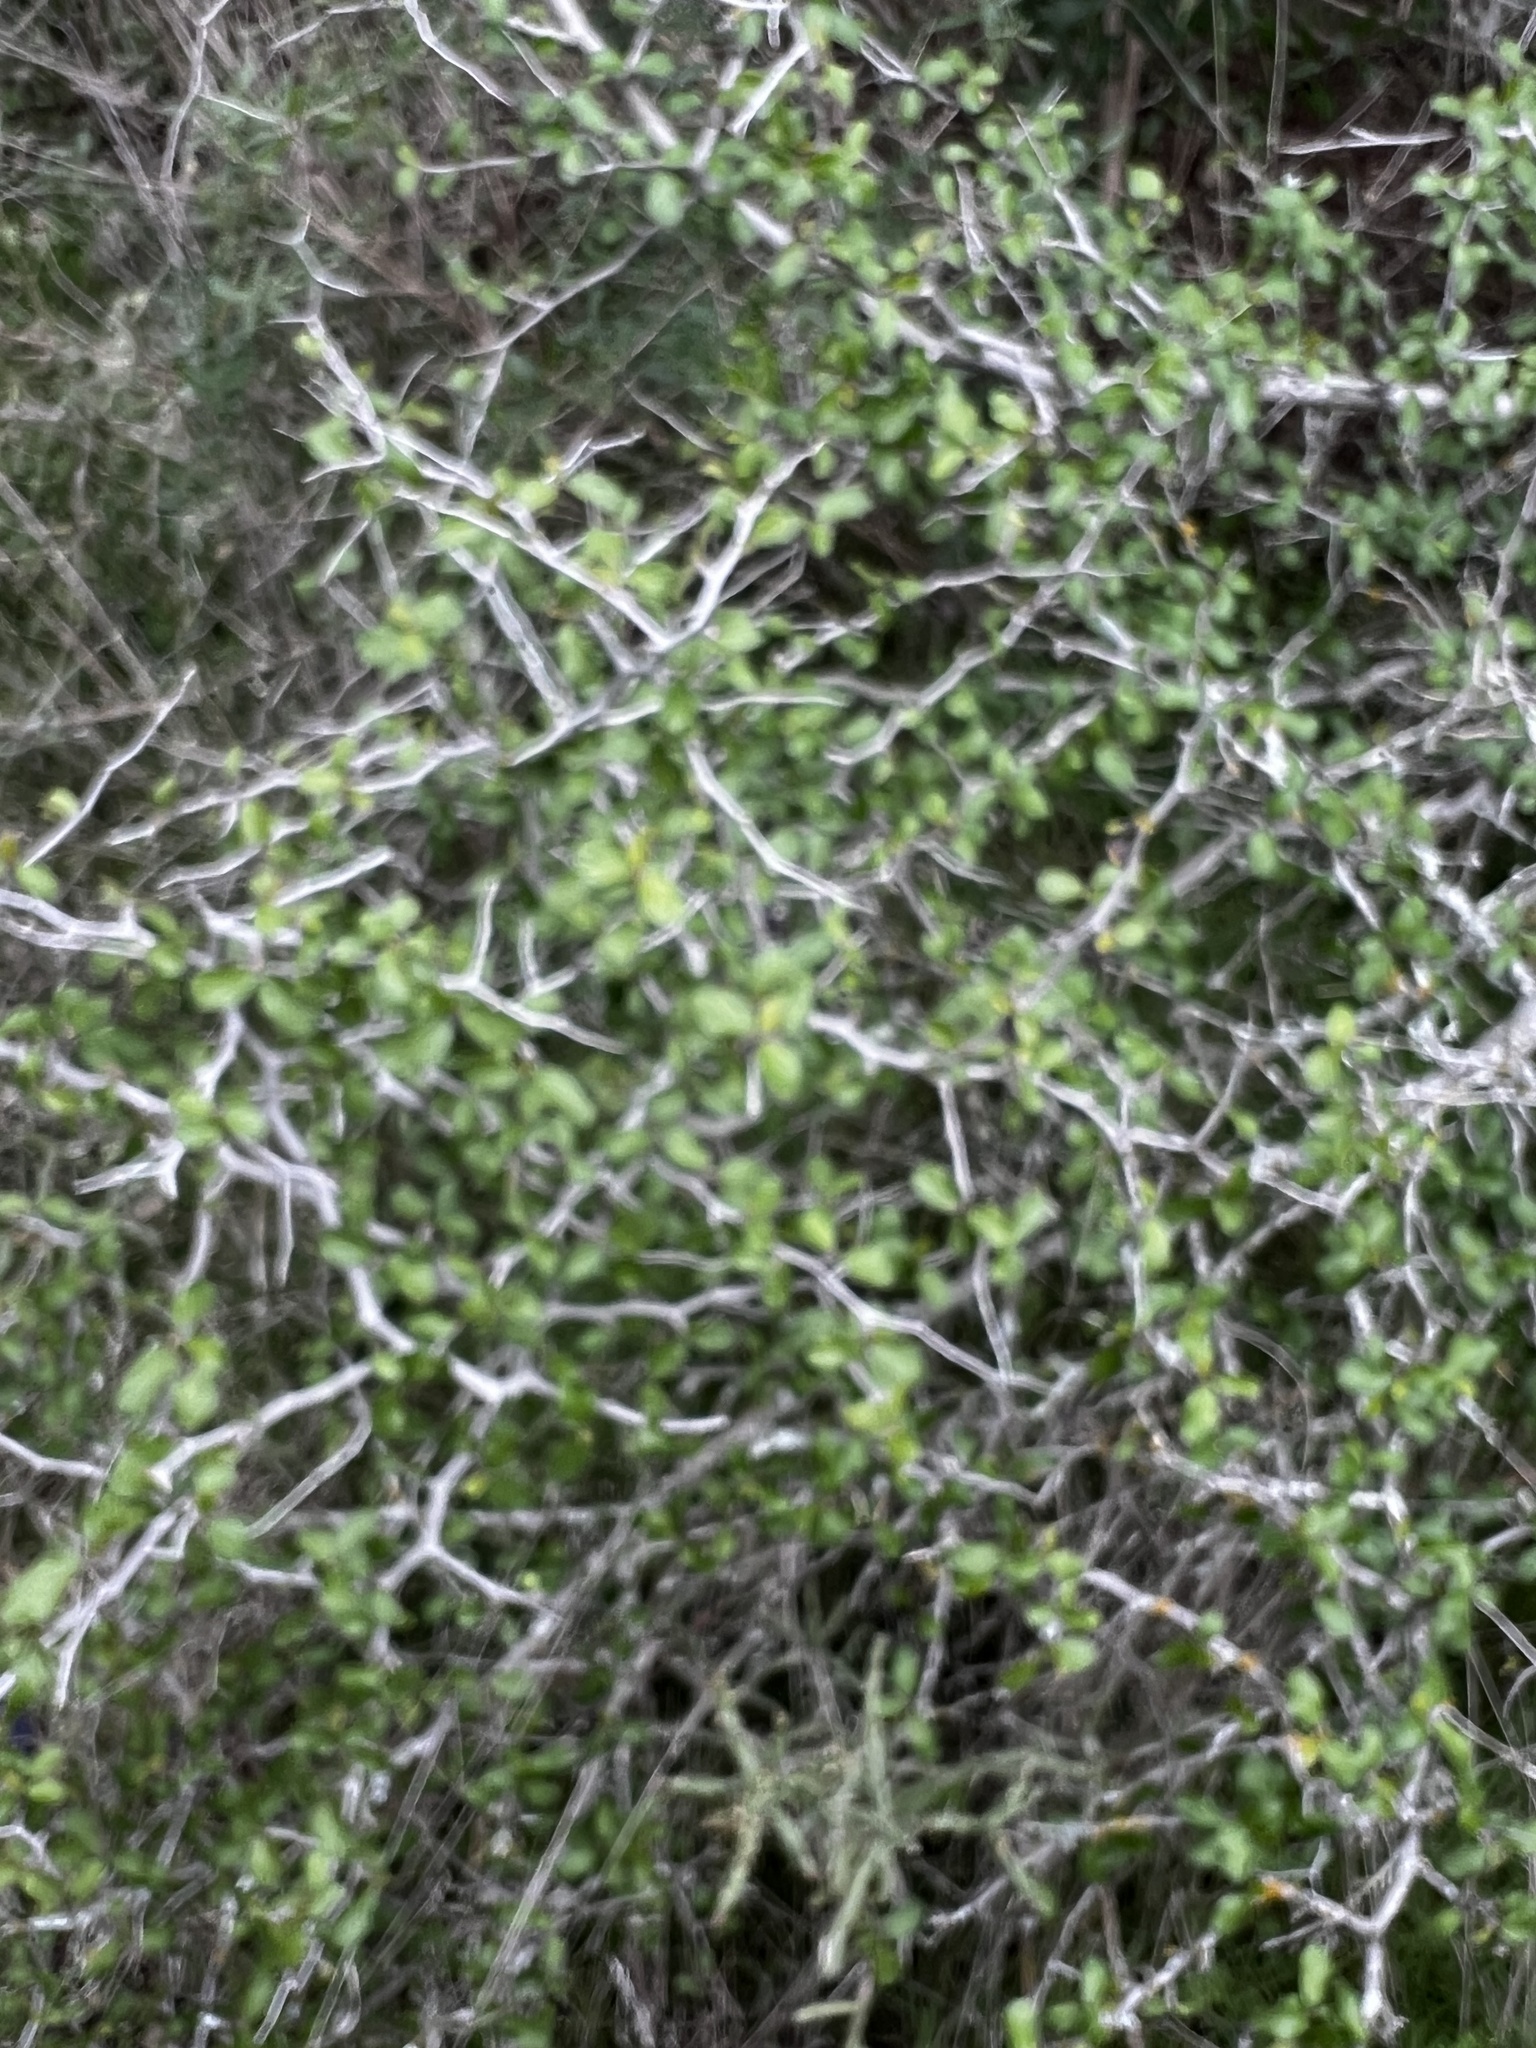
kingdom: Plantae
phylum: Tracheophyta
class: Magnoliopsida
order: Rosales
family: Rhamnaceae
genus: Colubrina
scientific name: Colubrina texensis
